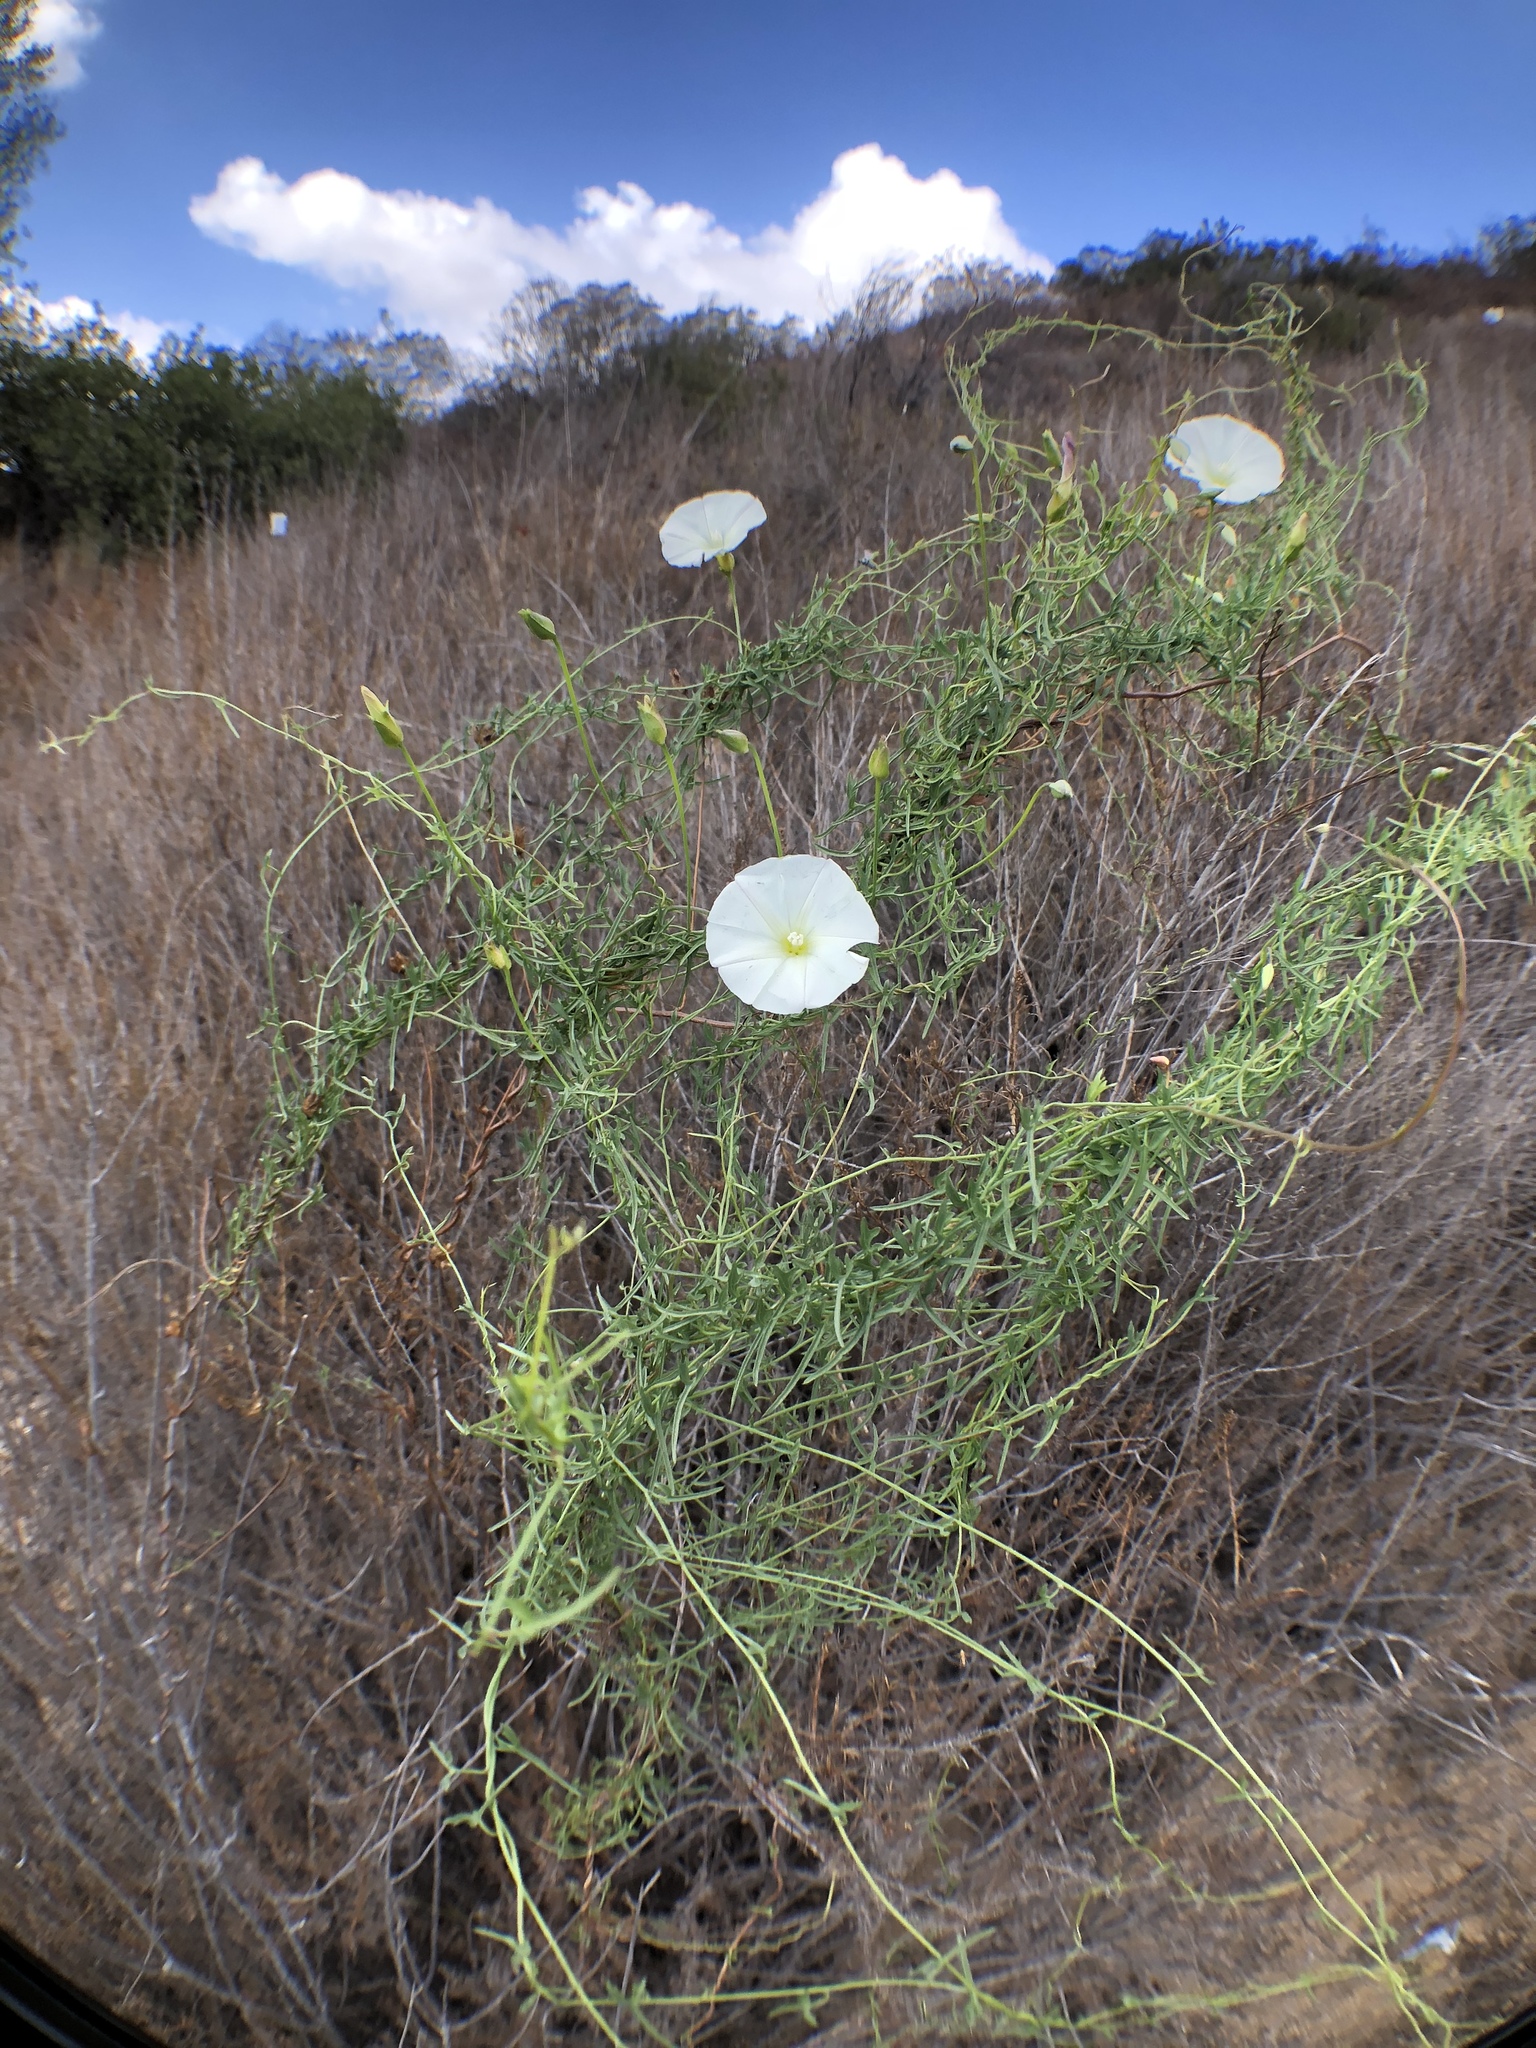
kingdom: Plantae
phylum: Tracheophyta
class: Magnoliopsida
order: Solanales
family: Convolvulaceae
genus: Calystegia
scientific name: Calystegia macrostegia
